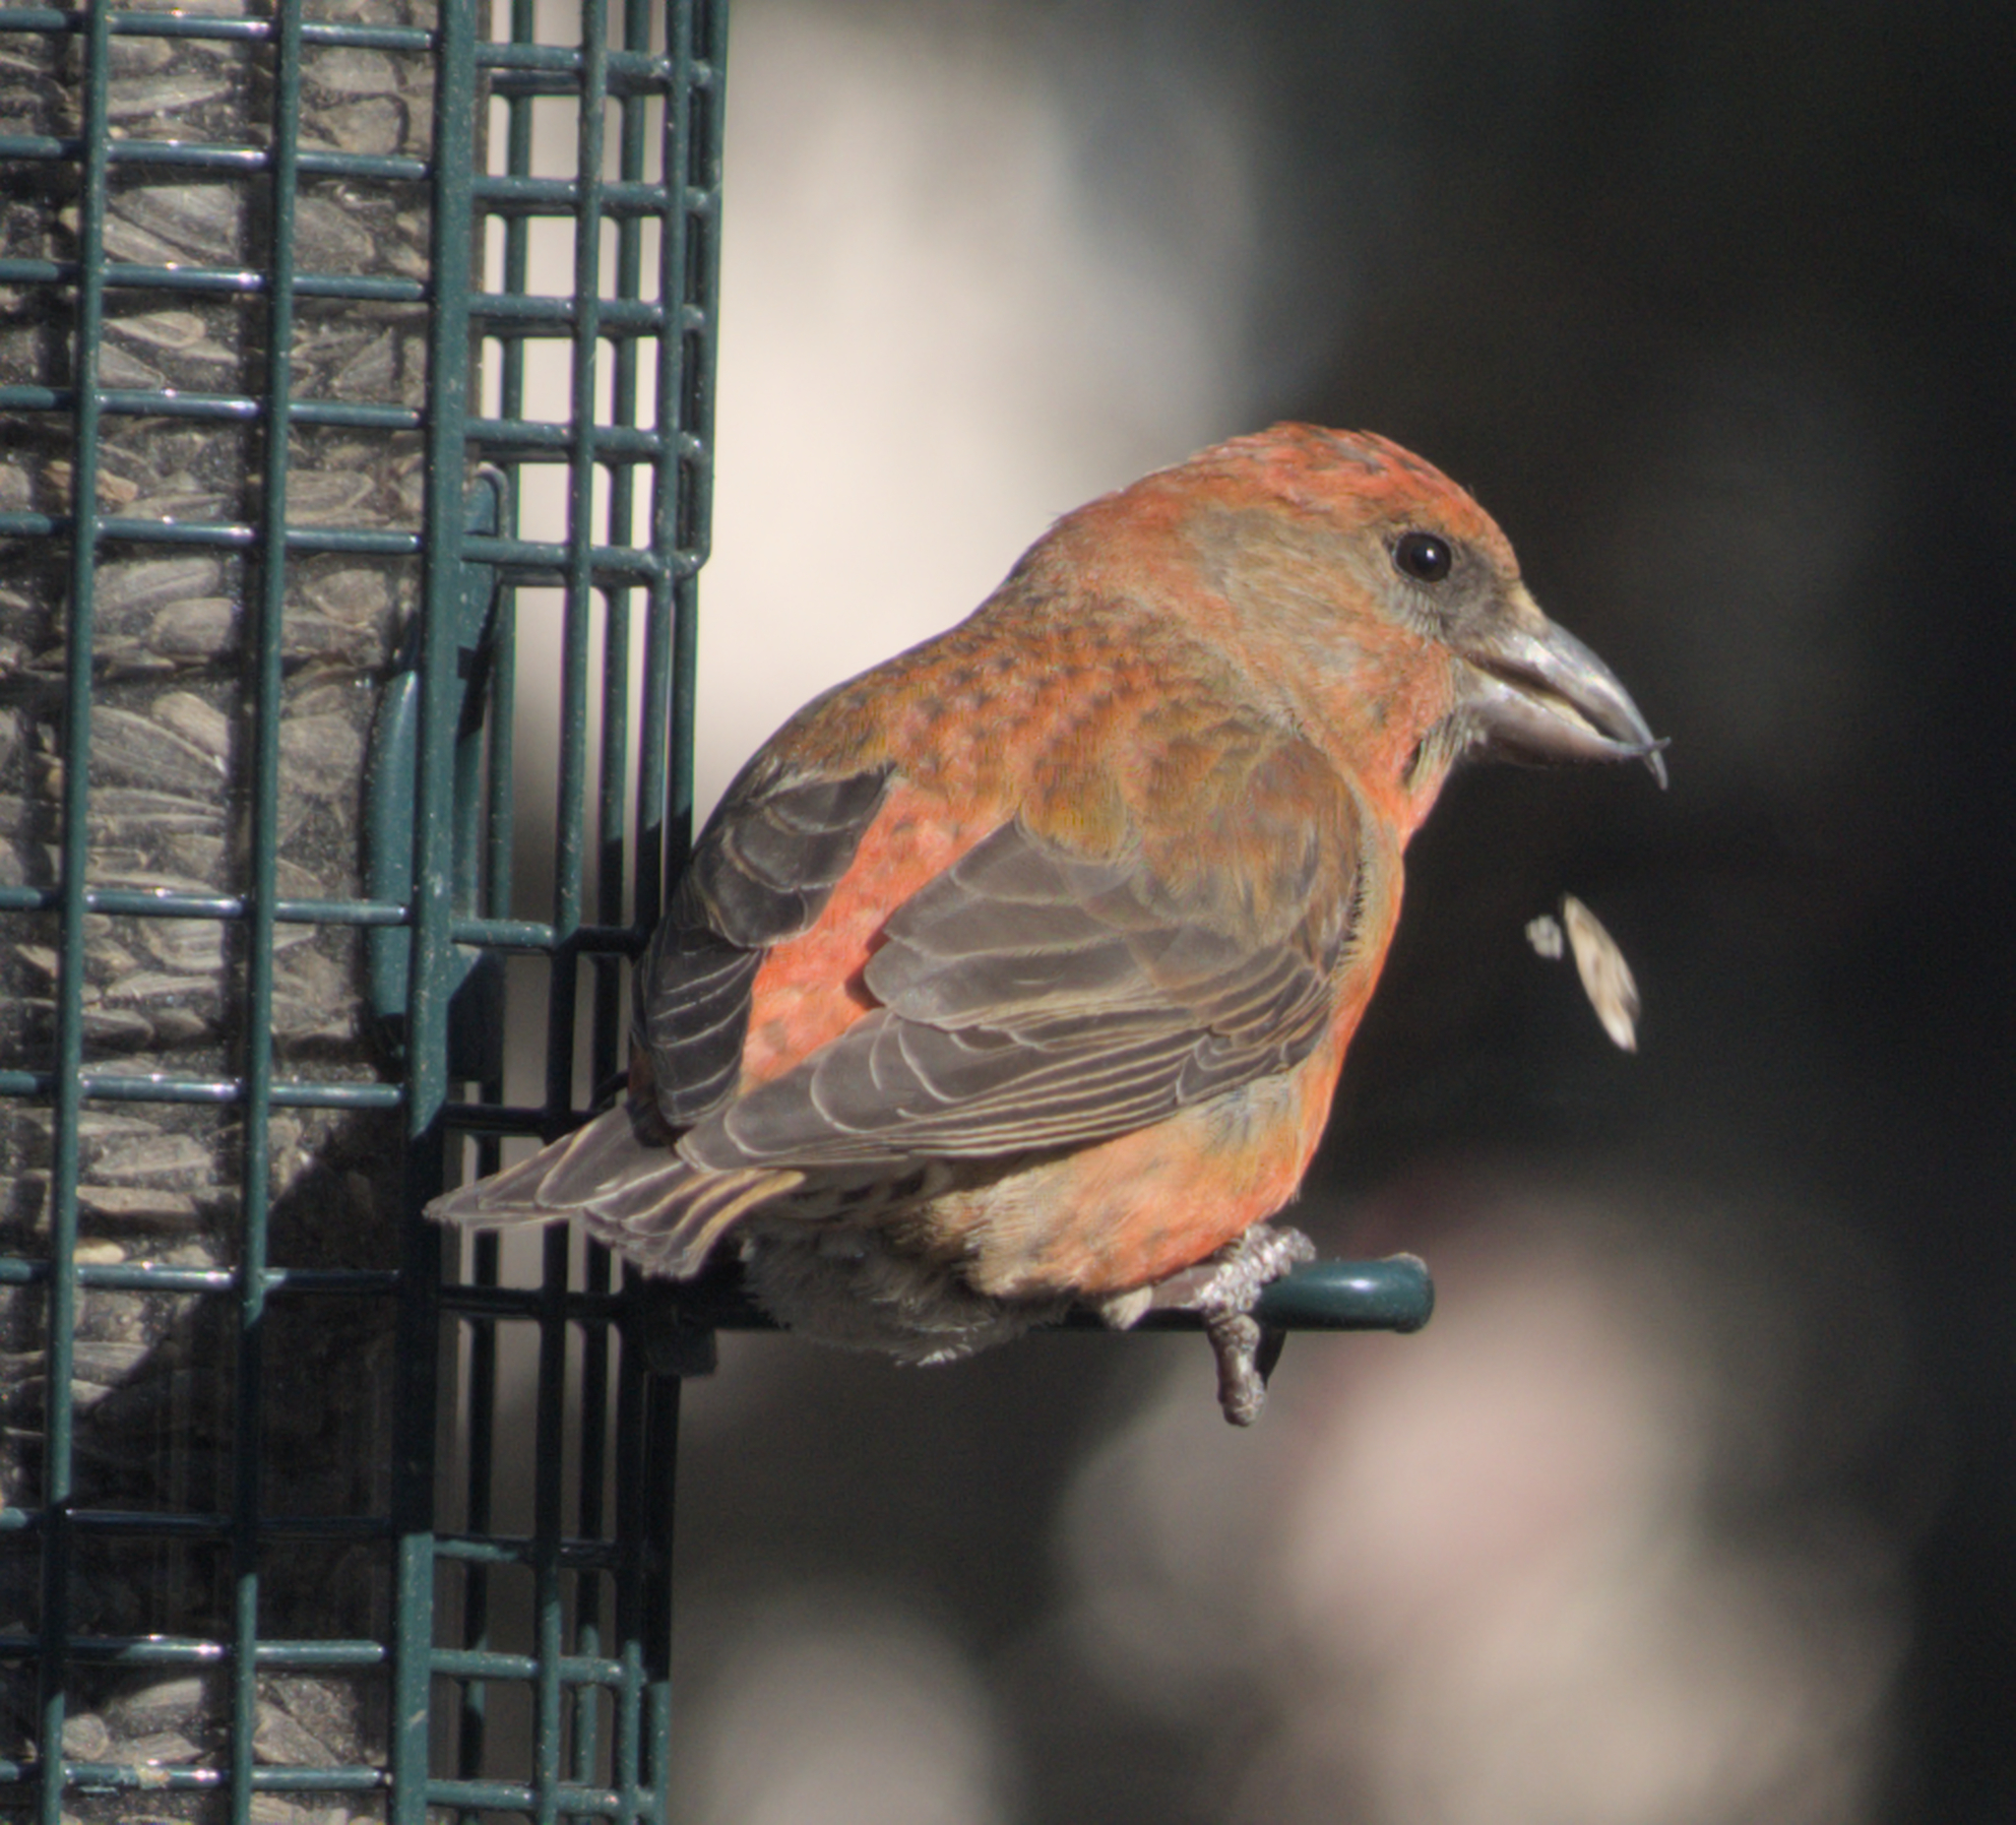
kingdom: Animalia
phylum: Chordata
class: Aves
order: Passeriformes
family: Fringillidae
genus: Loxia
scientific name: Loxia curvirostra
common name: Red crossbill
